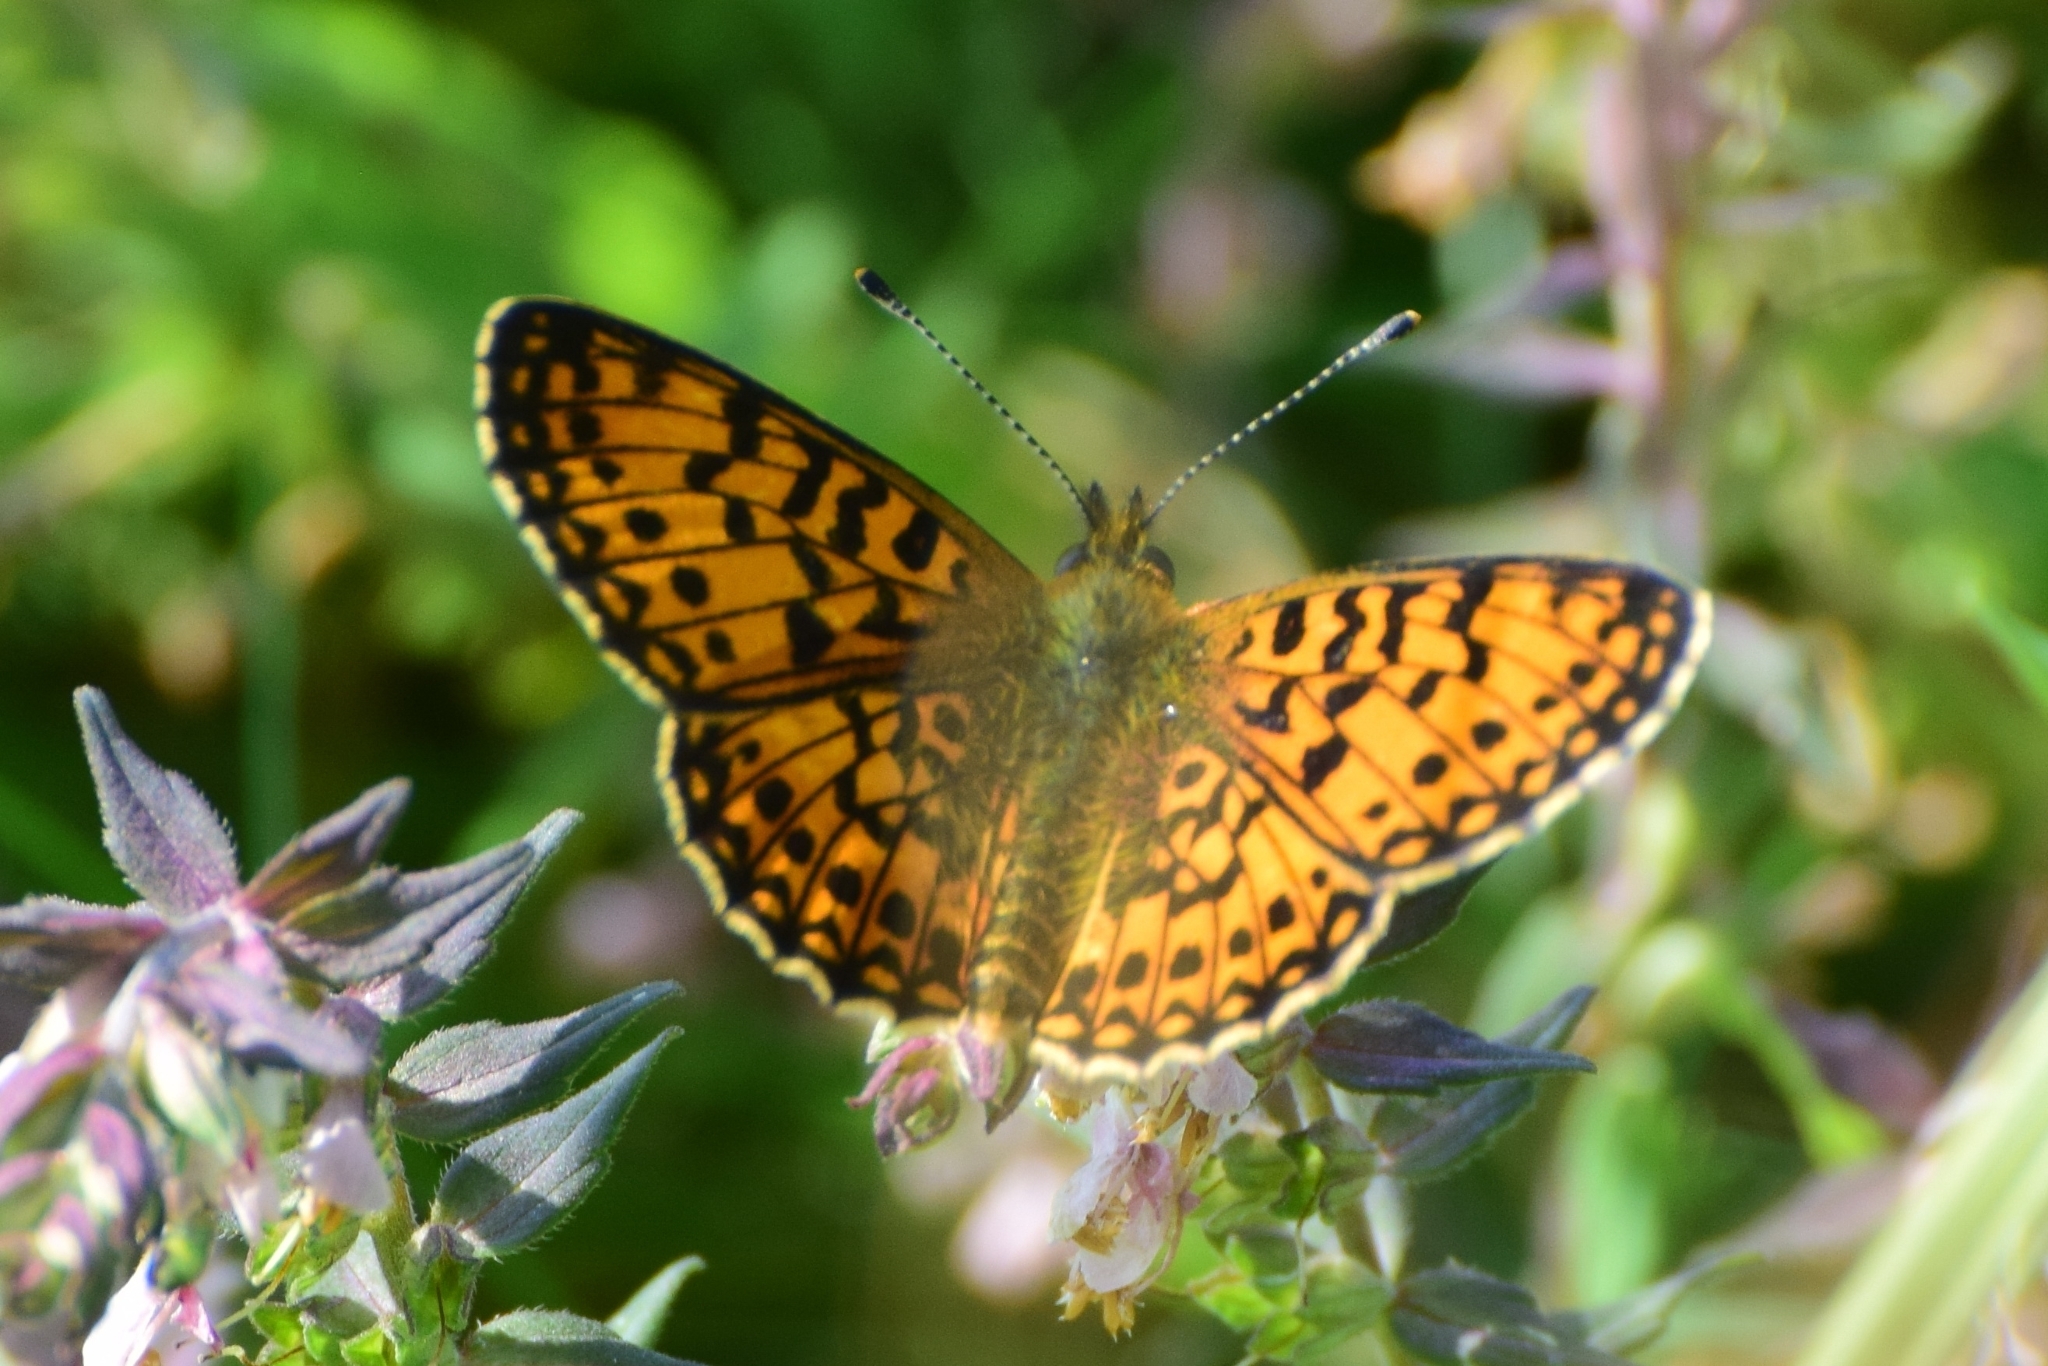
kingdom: Animalia
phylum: Arthropoda
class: Insecta
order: Lepidoptera
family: Nymphalidae
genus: Boloria
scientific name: Boloria selene
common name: Small pearl-bordered fritillary
